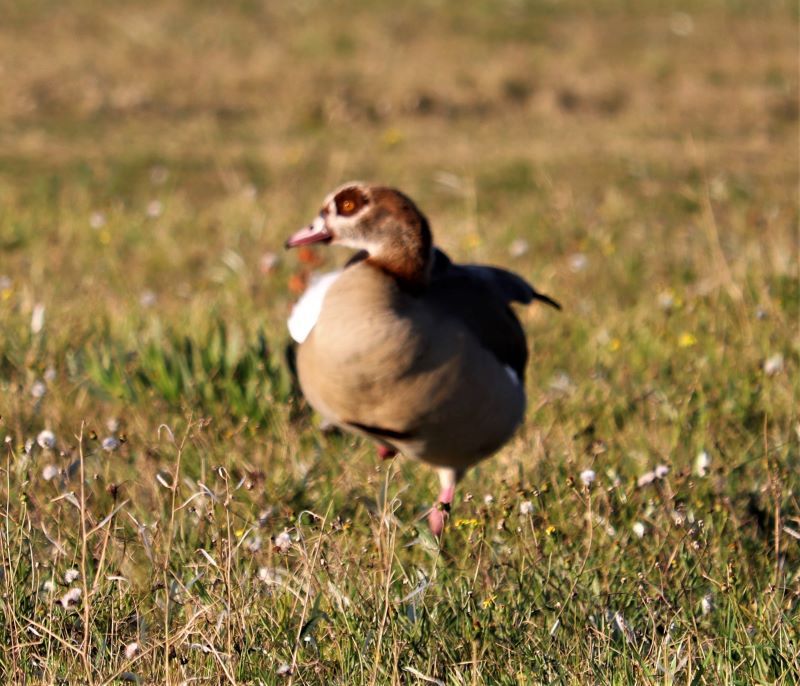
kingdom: Animalia
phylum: Chordata
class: Aves
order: Anseriformes
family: Anatidae
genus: Alopochen
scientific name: Alopochen aegyptiaca
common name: Egyptian goose
